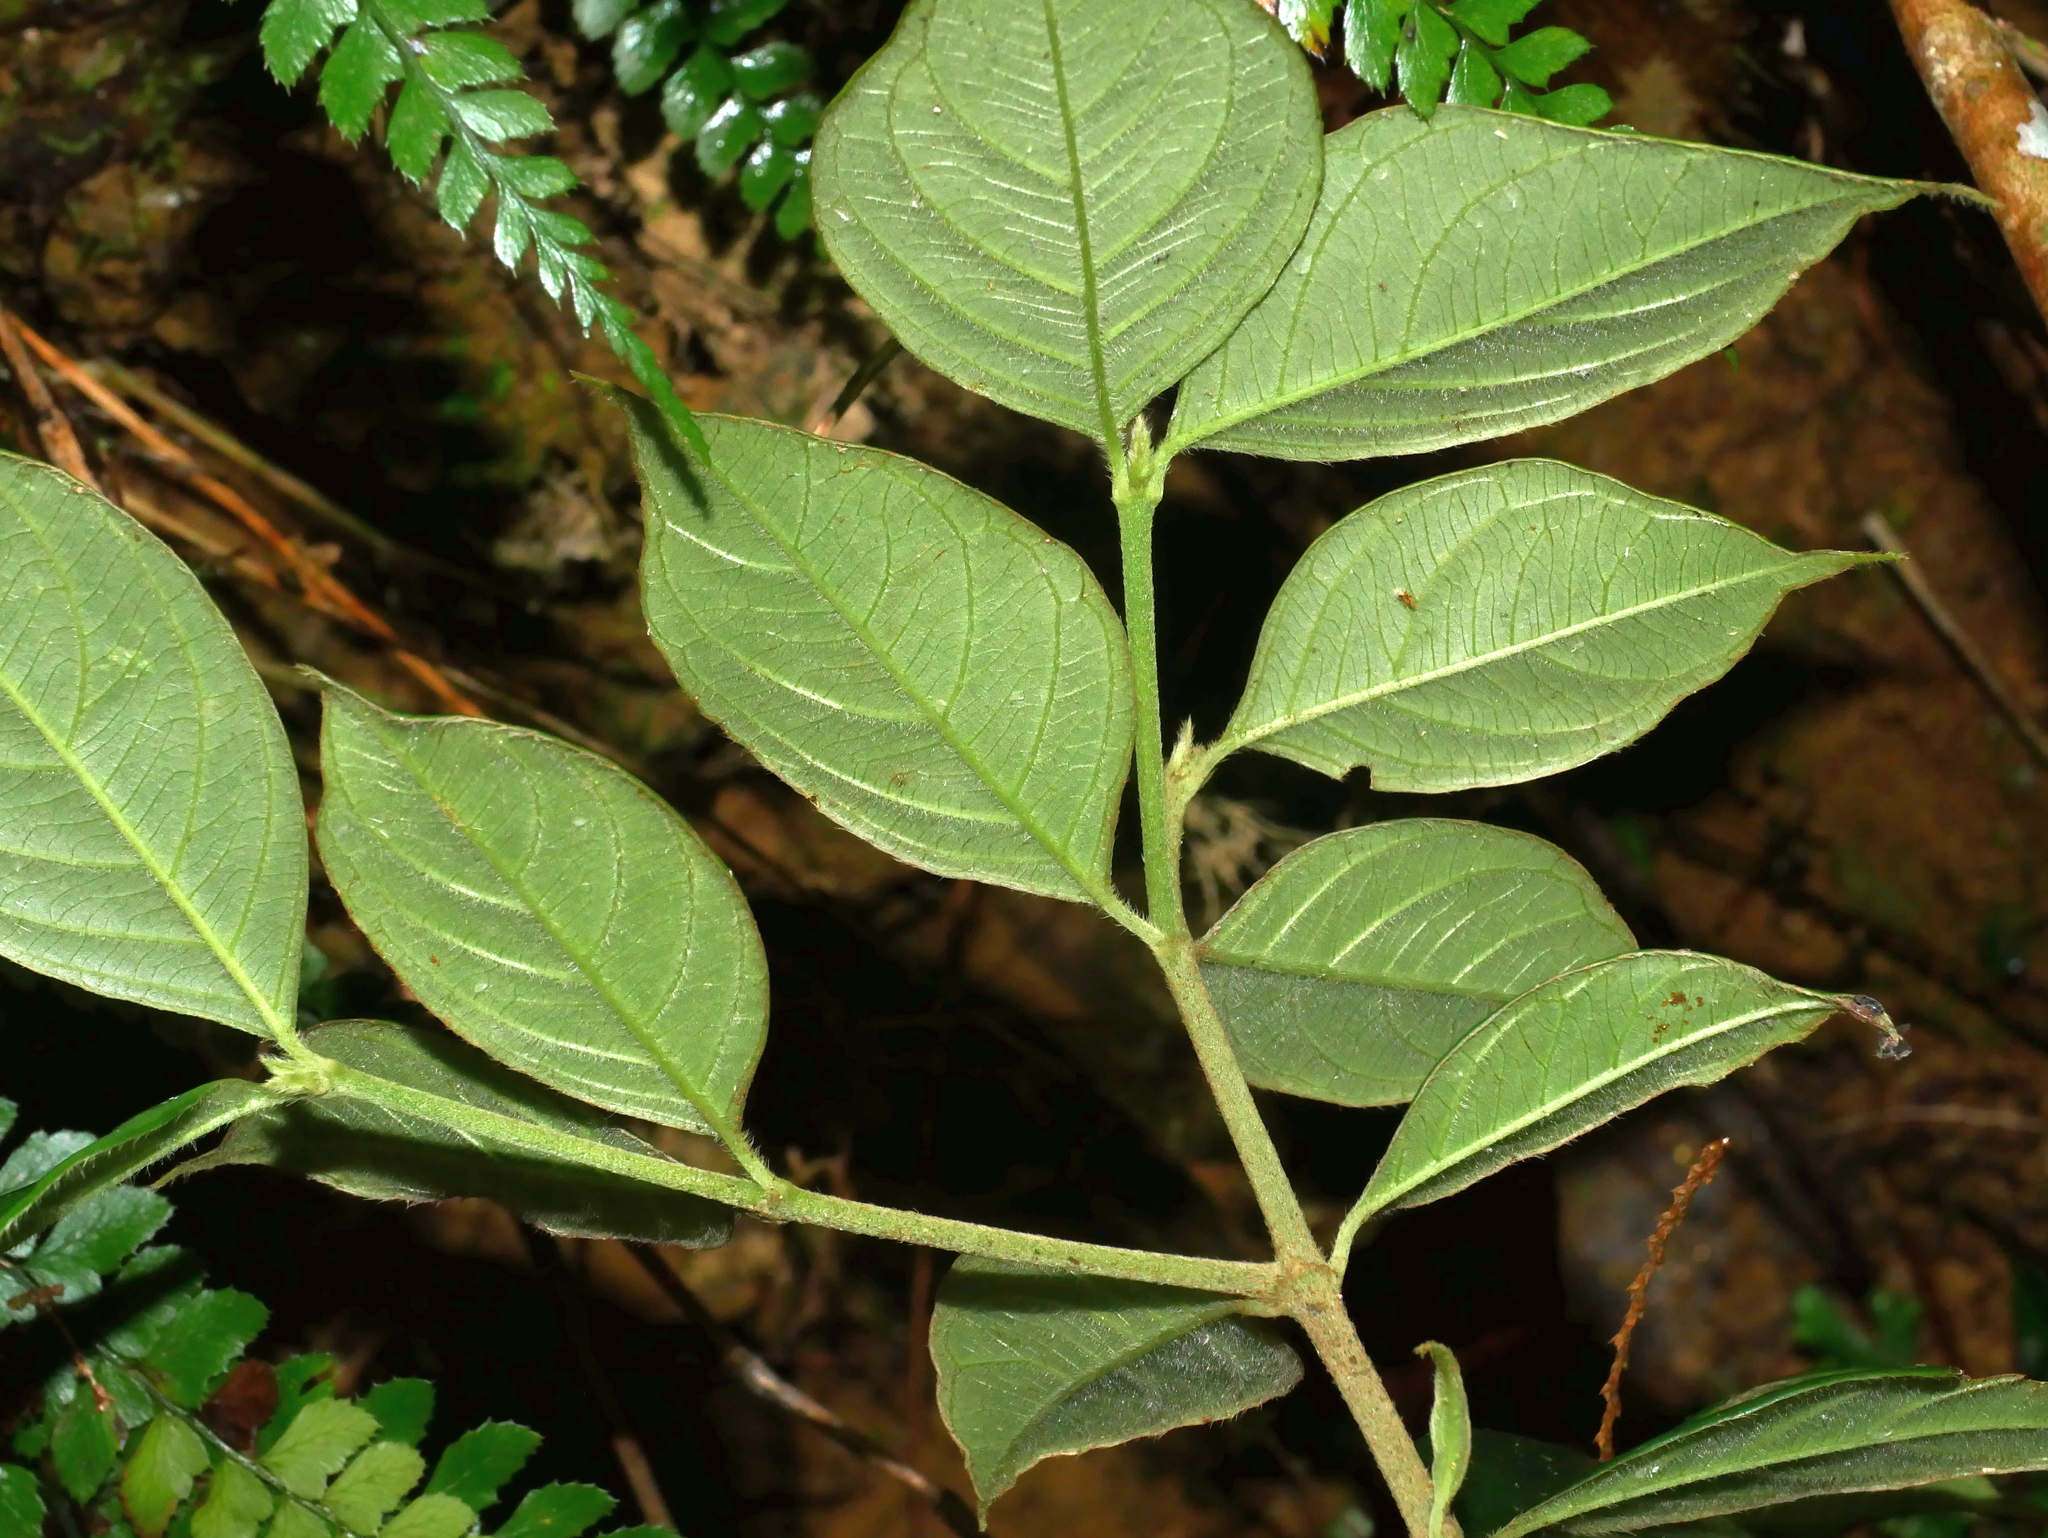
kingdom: Plantae
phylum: Tracheophyta
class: Magnoliopsida
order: Gentianales
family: Rubiaceae
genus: Lasianthus
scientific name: Lasianthus hispidulus
